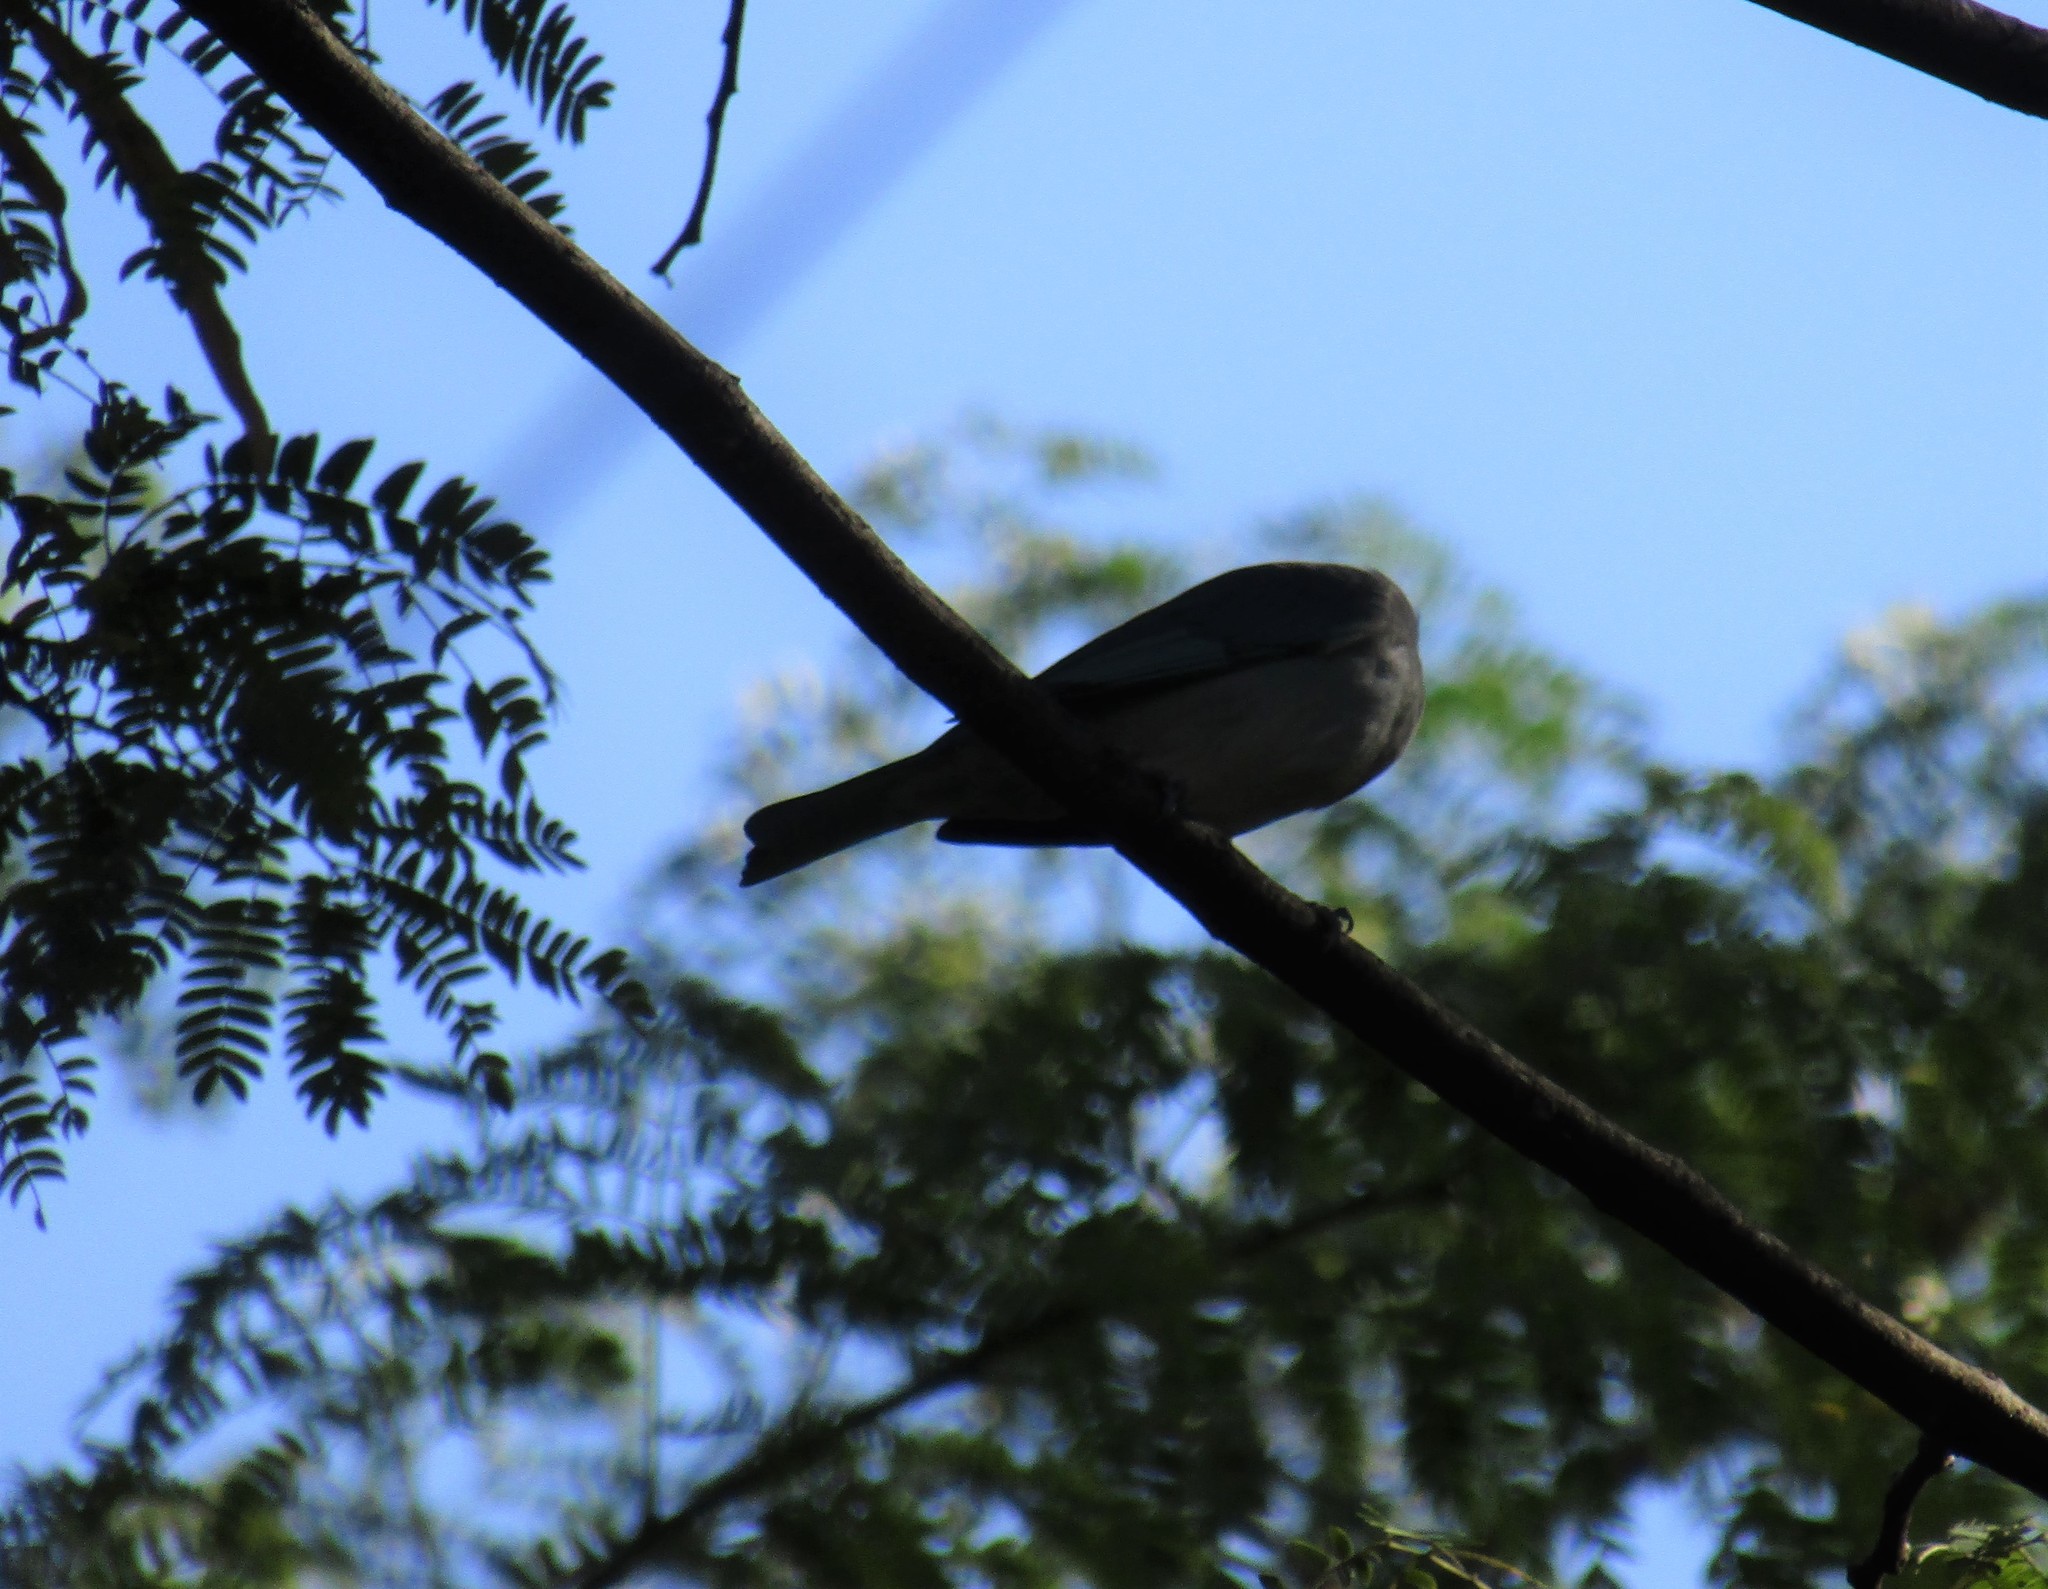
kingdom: Animalia
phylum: Chordata
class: Aves
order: Passeriformes
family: Thraupidae
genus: Thraupis
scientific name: Thraupis sayaca
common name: Sayaca tanager
